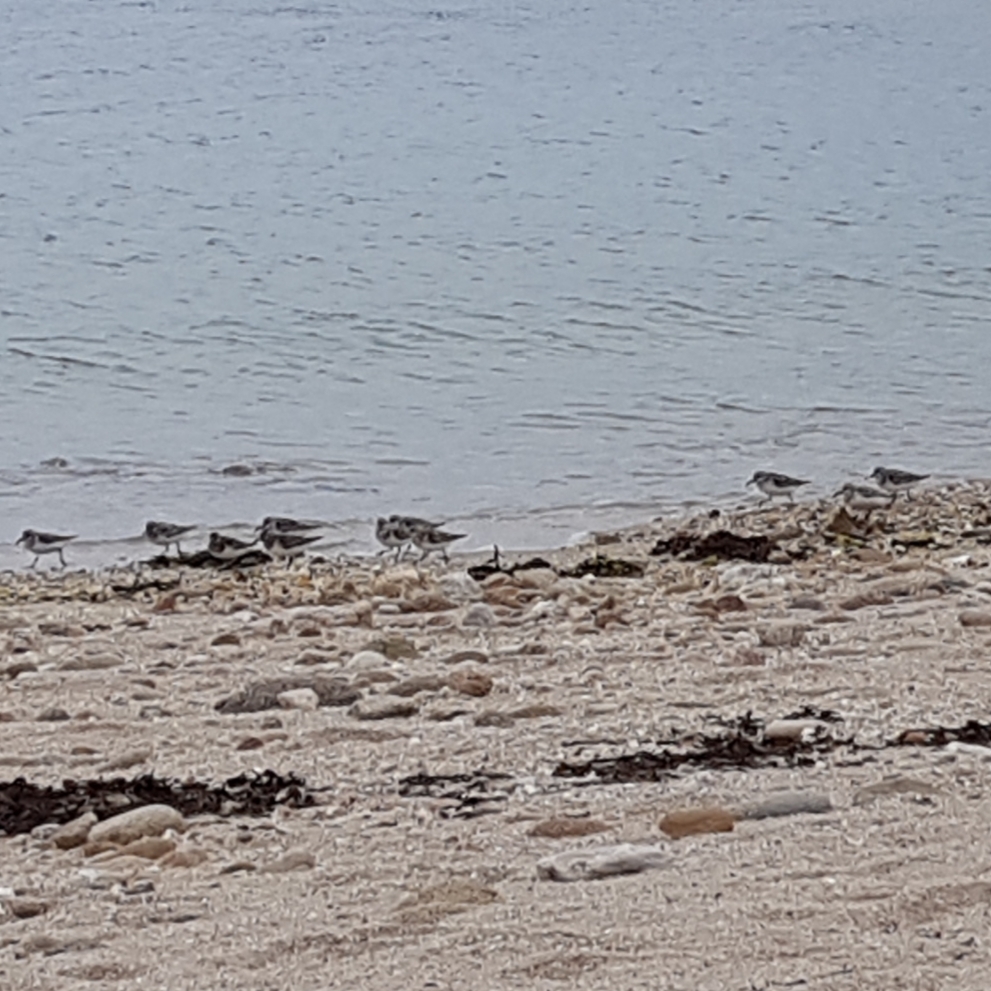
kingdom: Animalia
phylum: Chordata
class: Aves
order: Charadriiformes
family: Scolopacidae
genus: Calidris
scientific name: Calidris alba
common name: Sanderling
